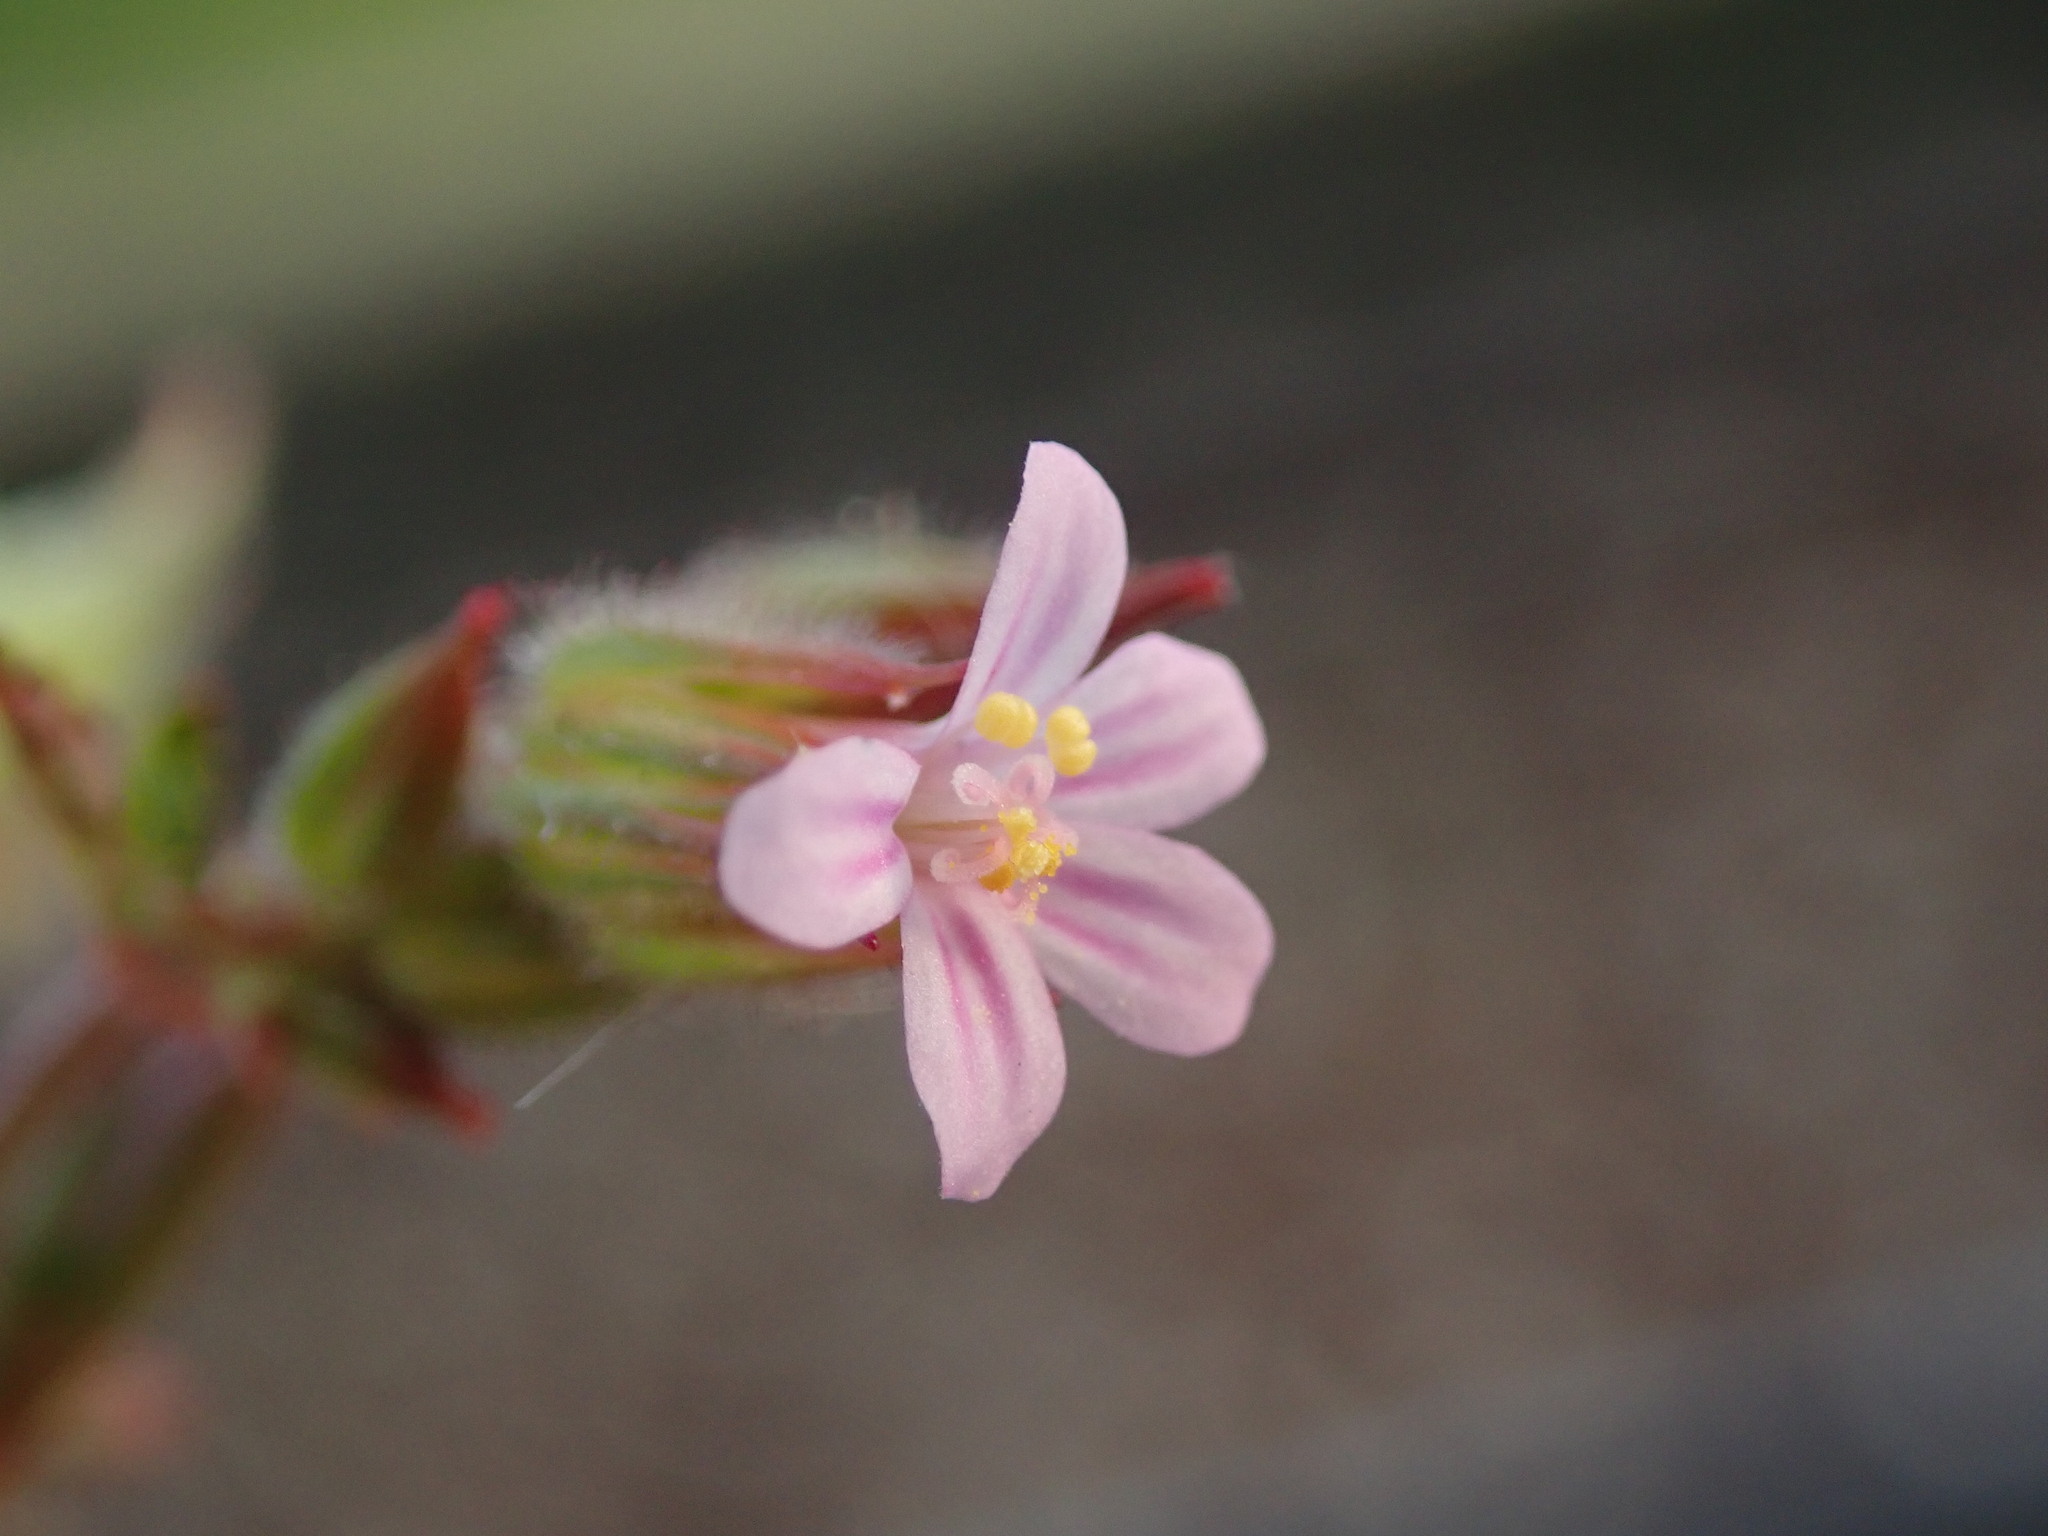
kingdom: Plantae
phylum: Tracheophyta
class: Magnoliopsida
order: Geraniales
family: Geraniaceae
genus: Geranium
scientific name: Geranium purpureum
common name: Little-robin
